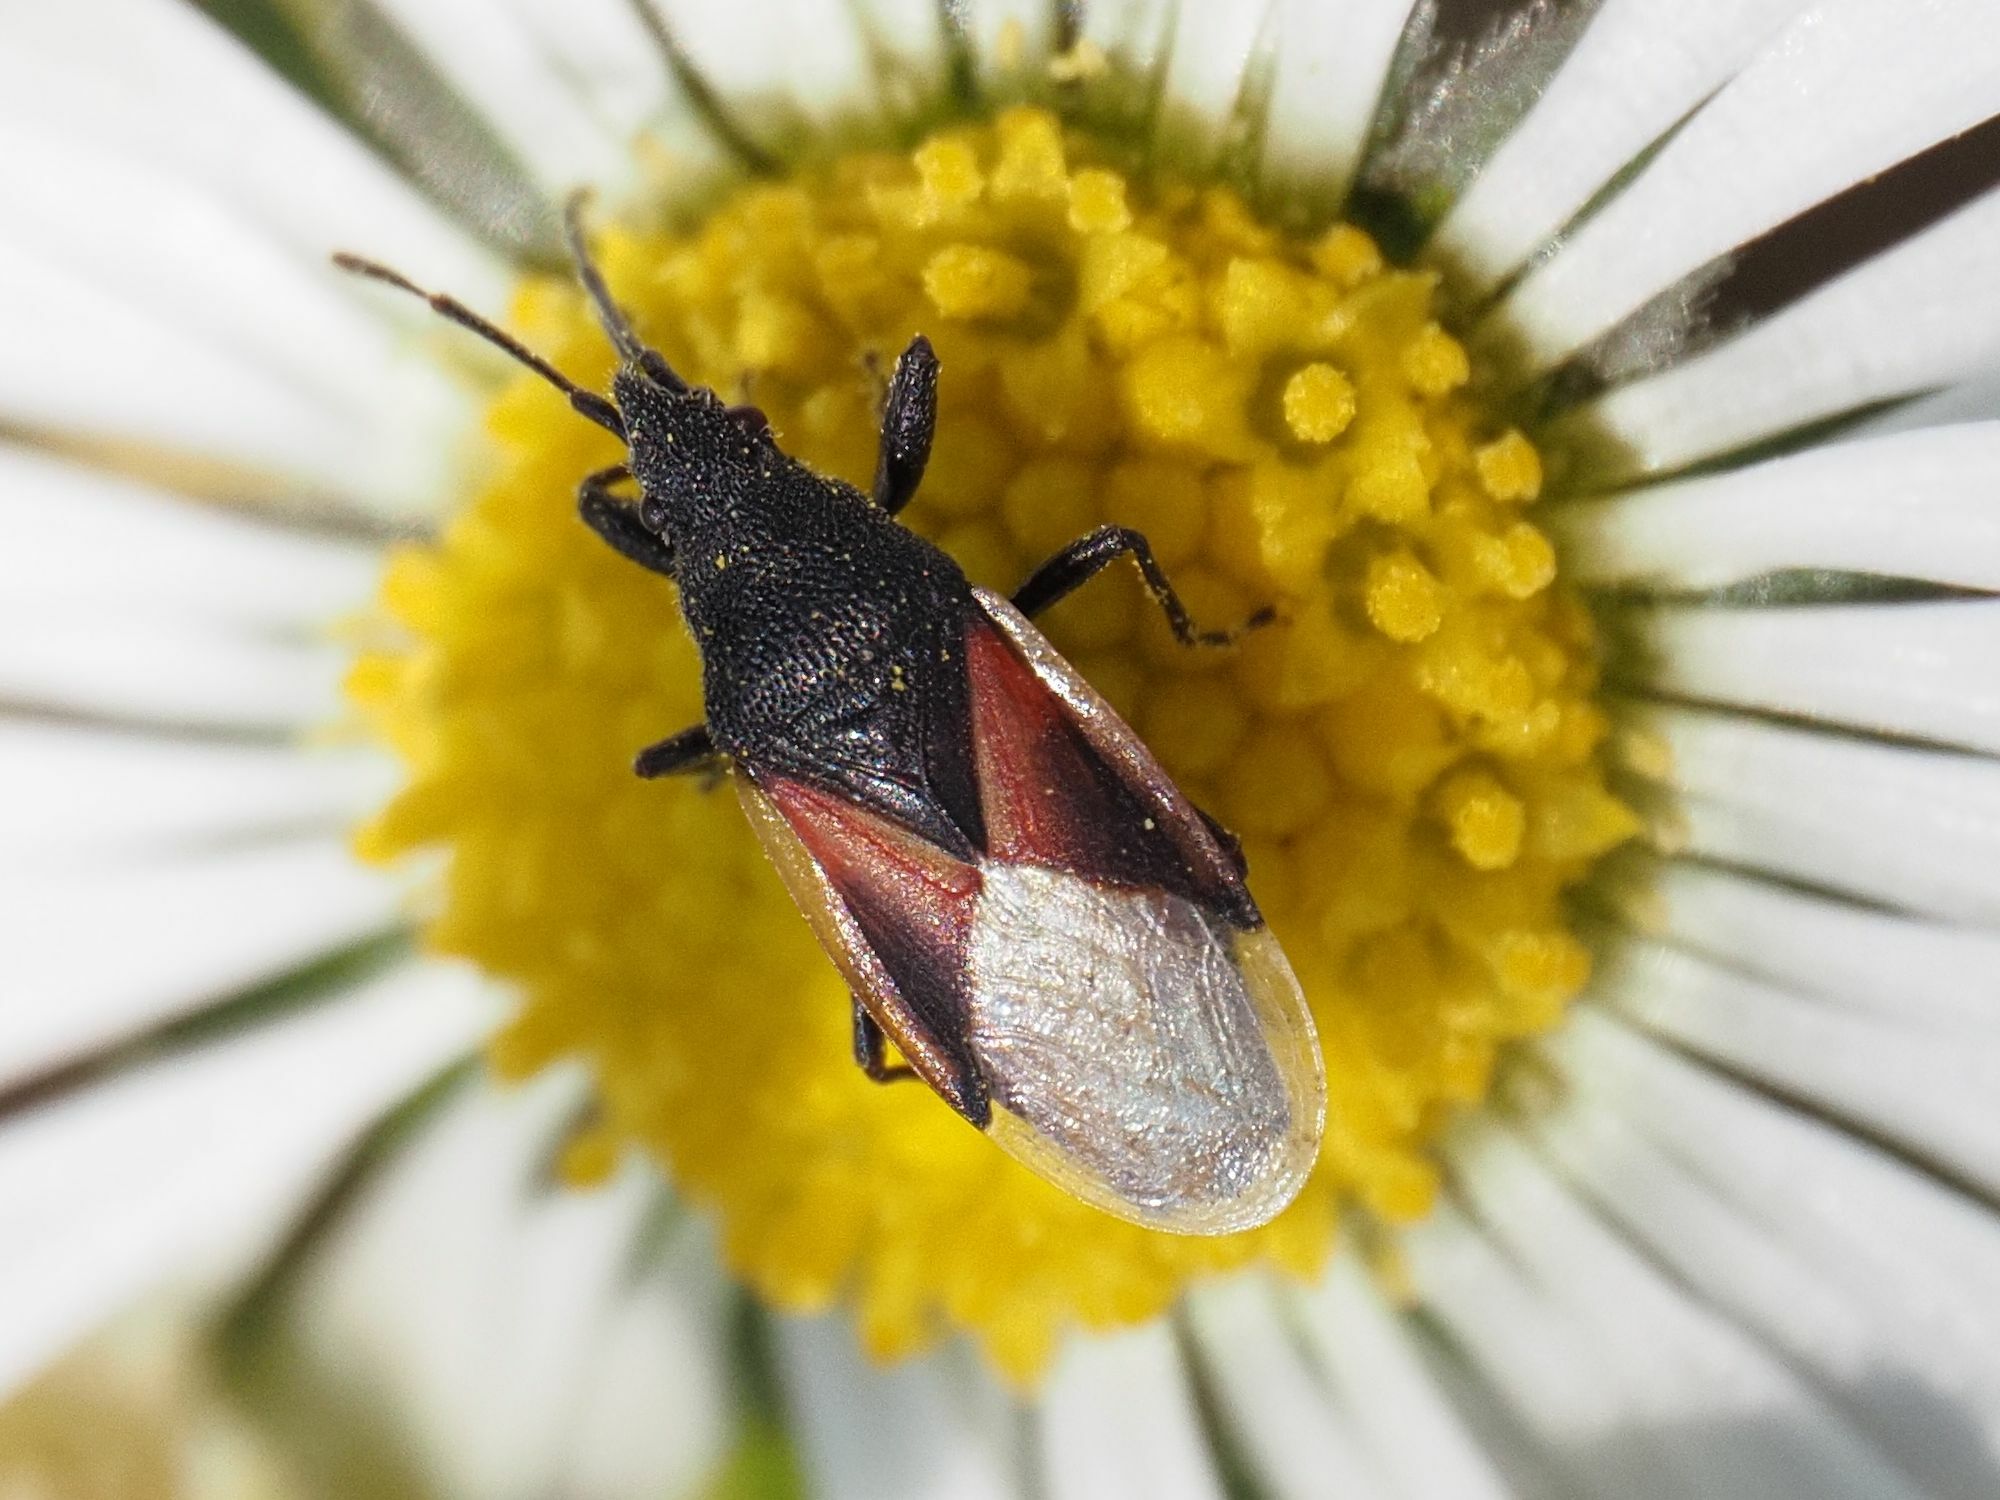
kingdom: Animalia
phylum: Arthropoda
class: Insecta
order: Hemiptera
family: Oxycarenidae
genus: Oxycarenus
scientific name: Oxycarenus lavaterae
